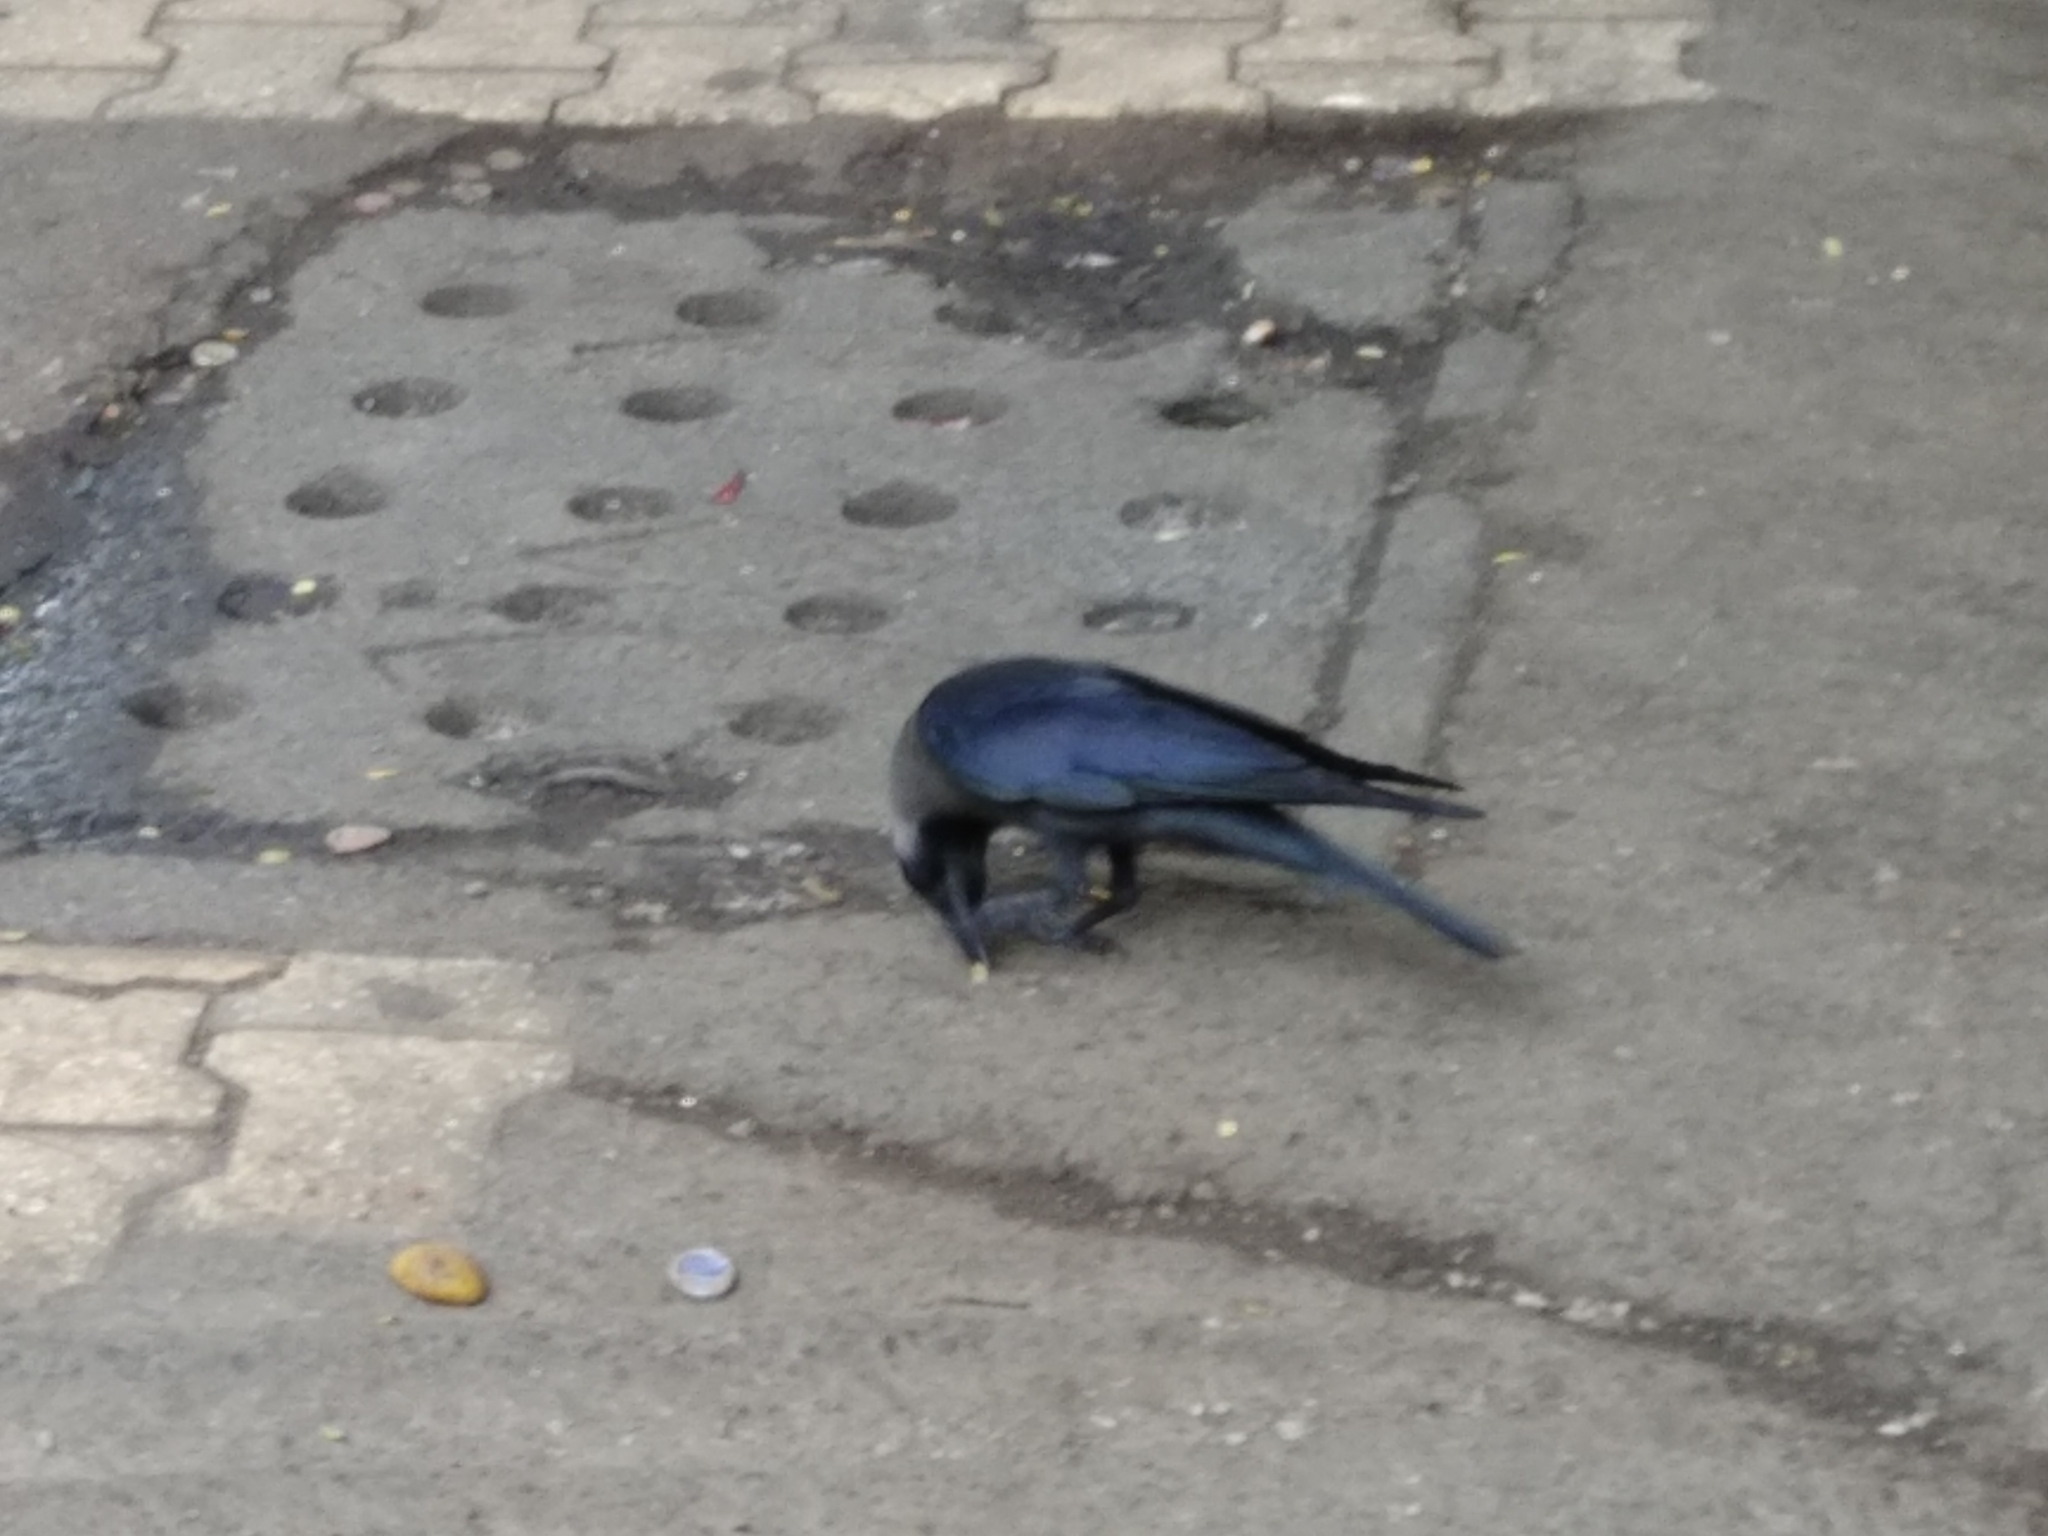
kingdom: Animalia
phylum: Chordata
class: Aves
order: Passeriformes
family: Corvidae
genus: Corvus
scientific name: Corvus splendens
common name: House crow
